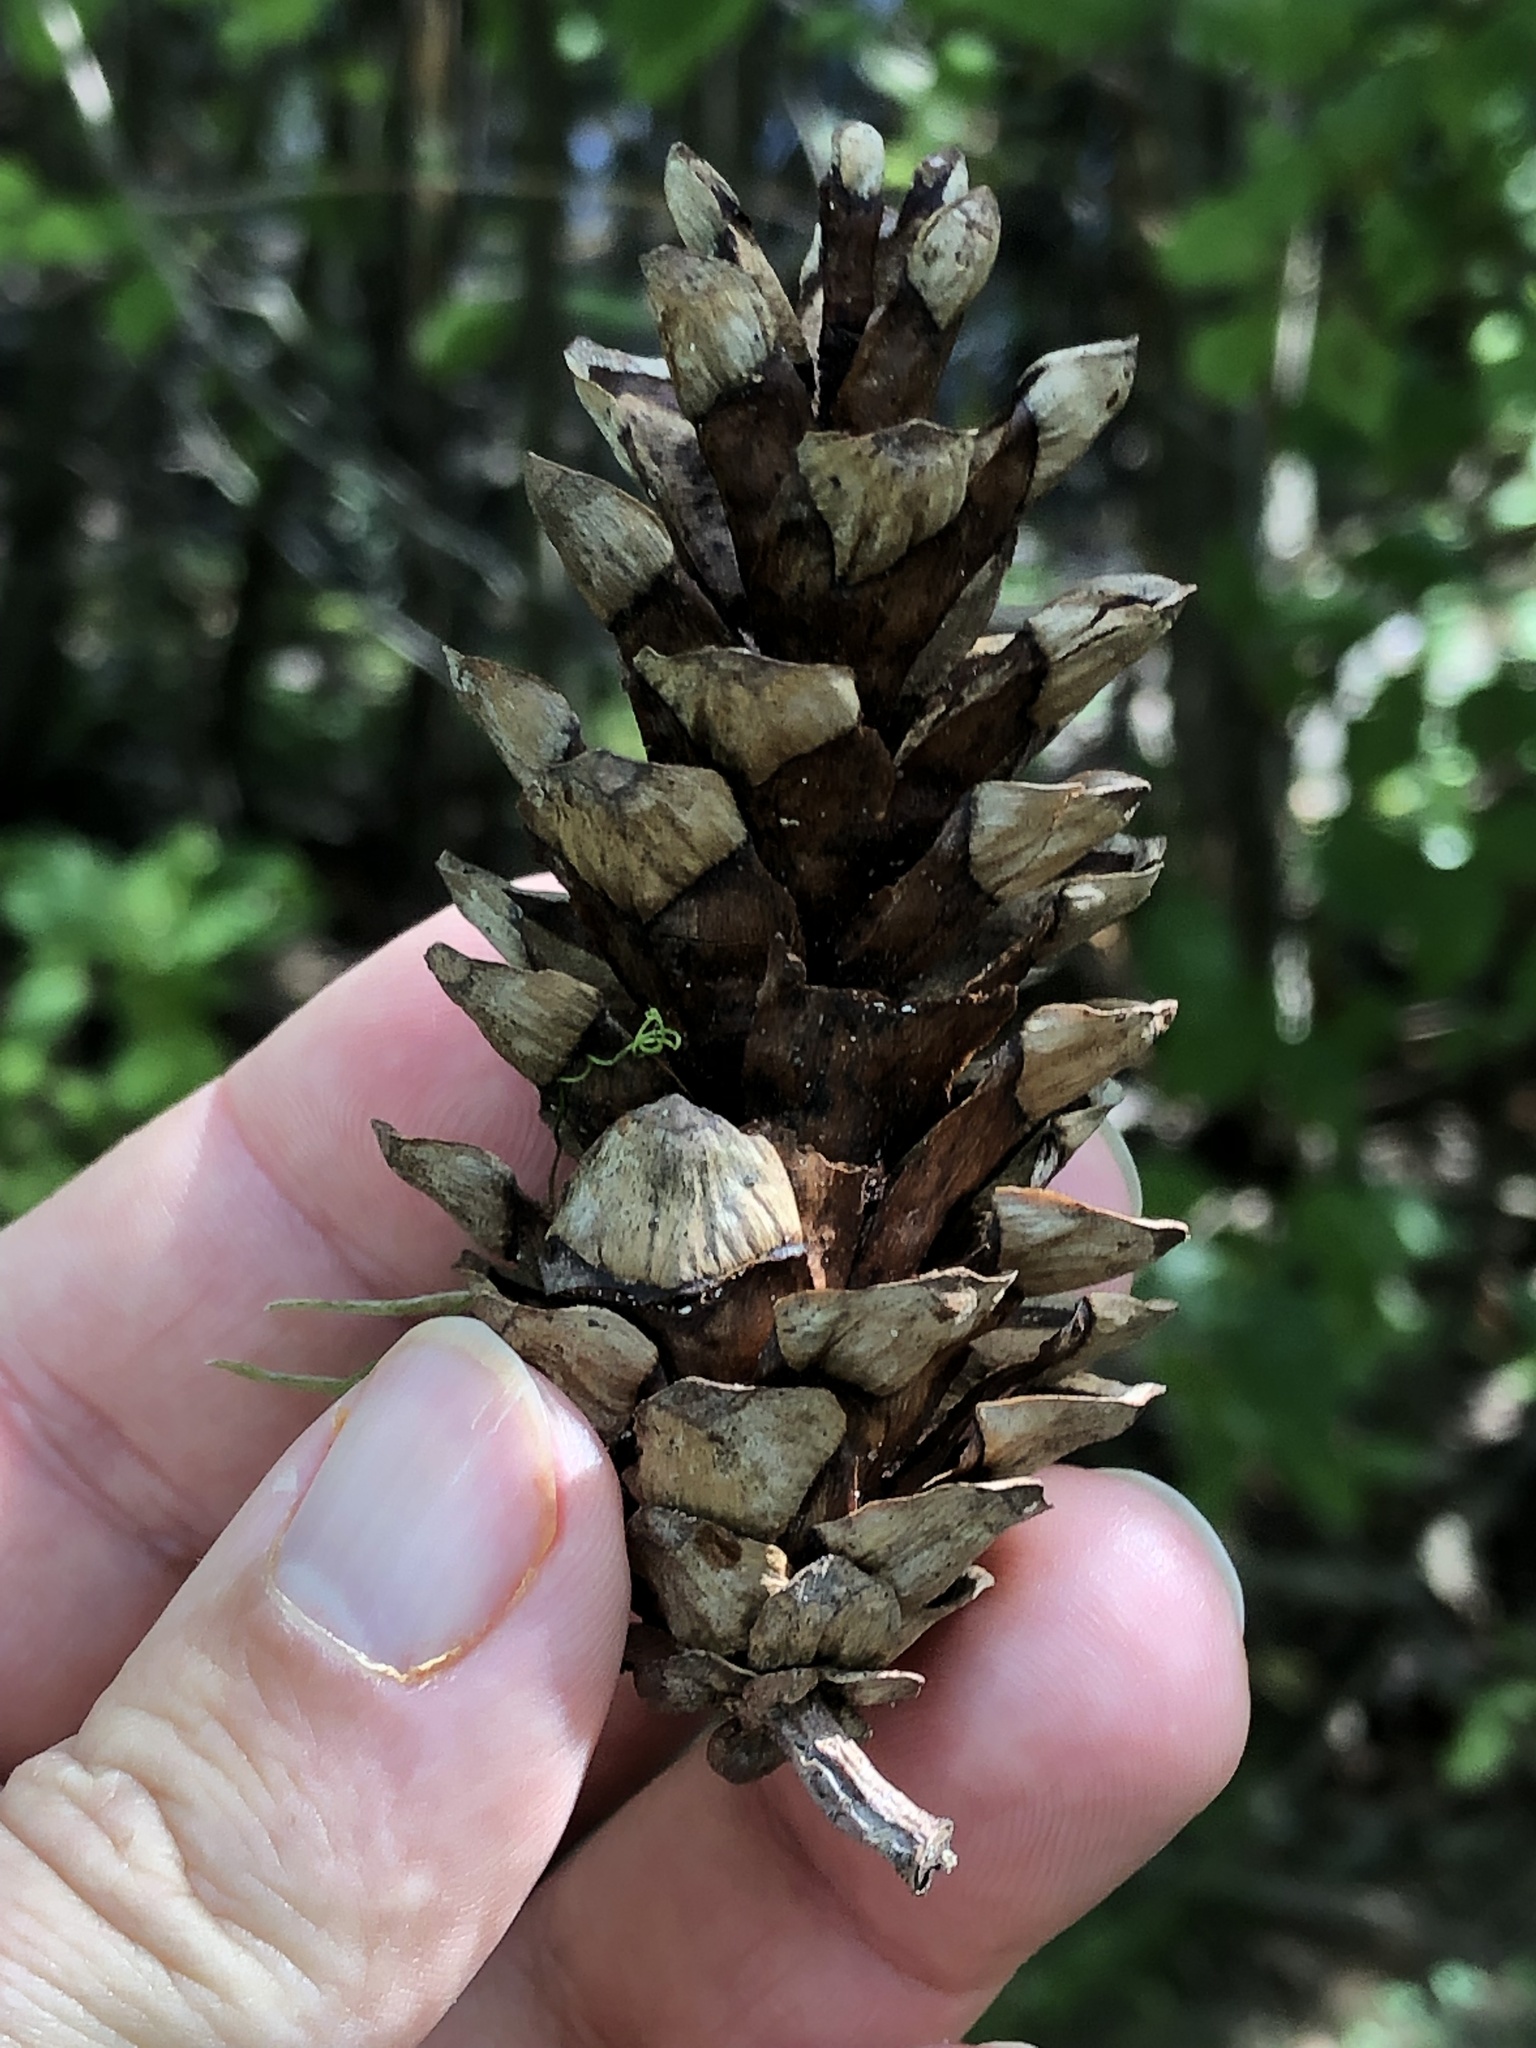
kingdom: Plantae
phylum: Tracheophyta
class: Pinopsida
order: Pinales
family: Pinaceae
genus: Pinus
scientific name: Pinus strobus
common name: Weymouth pine
